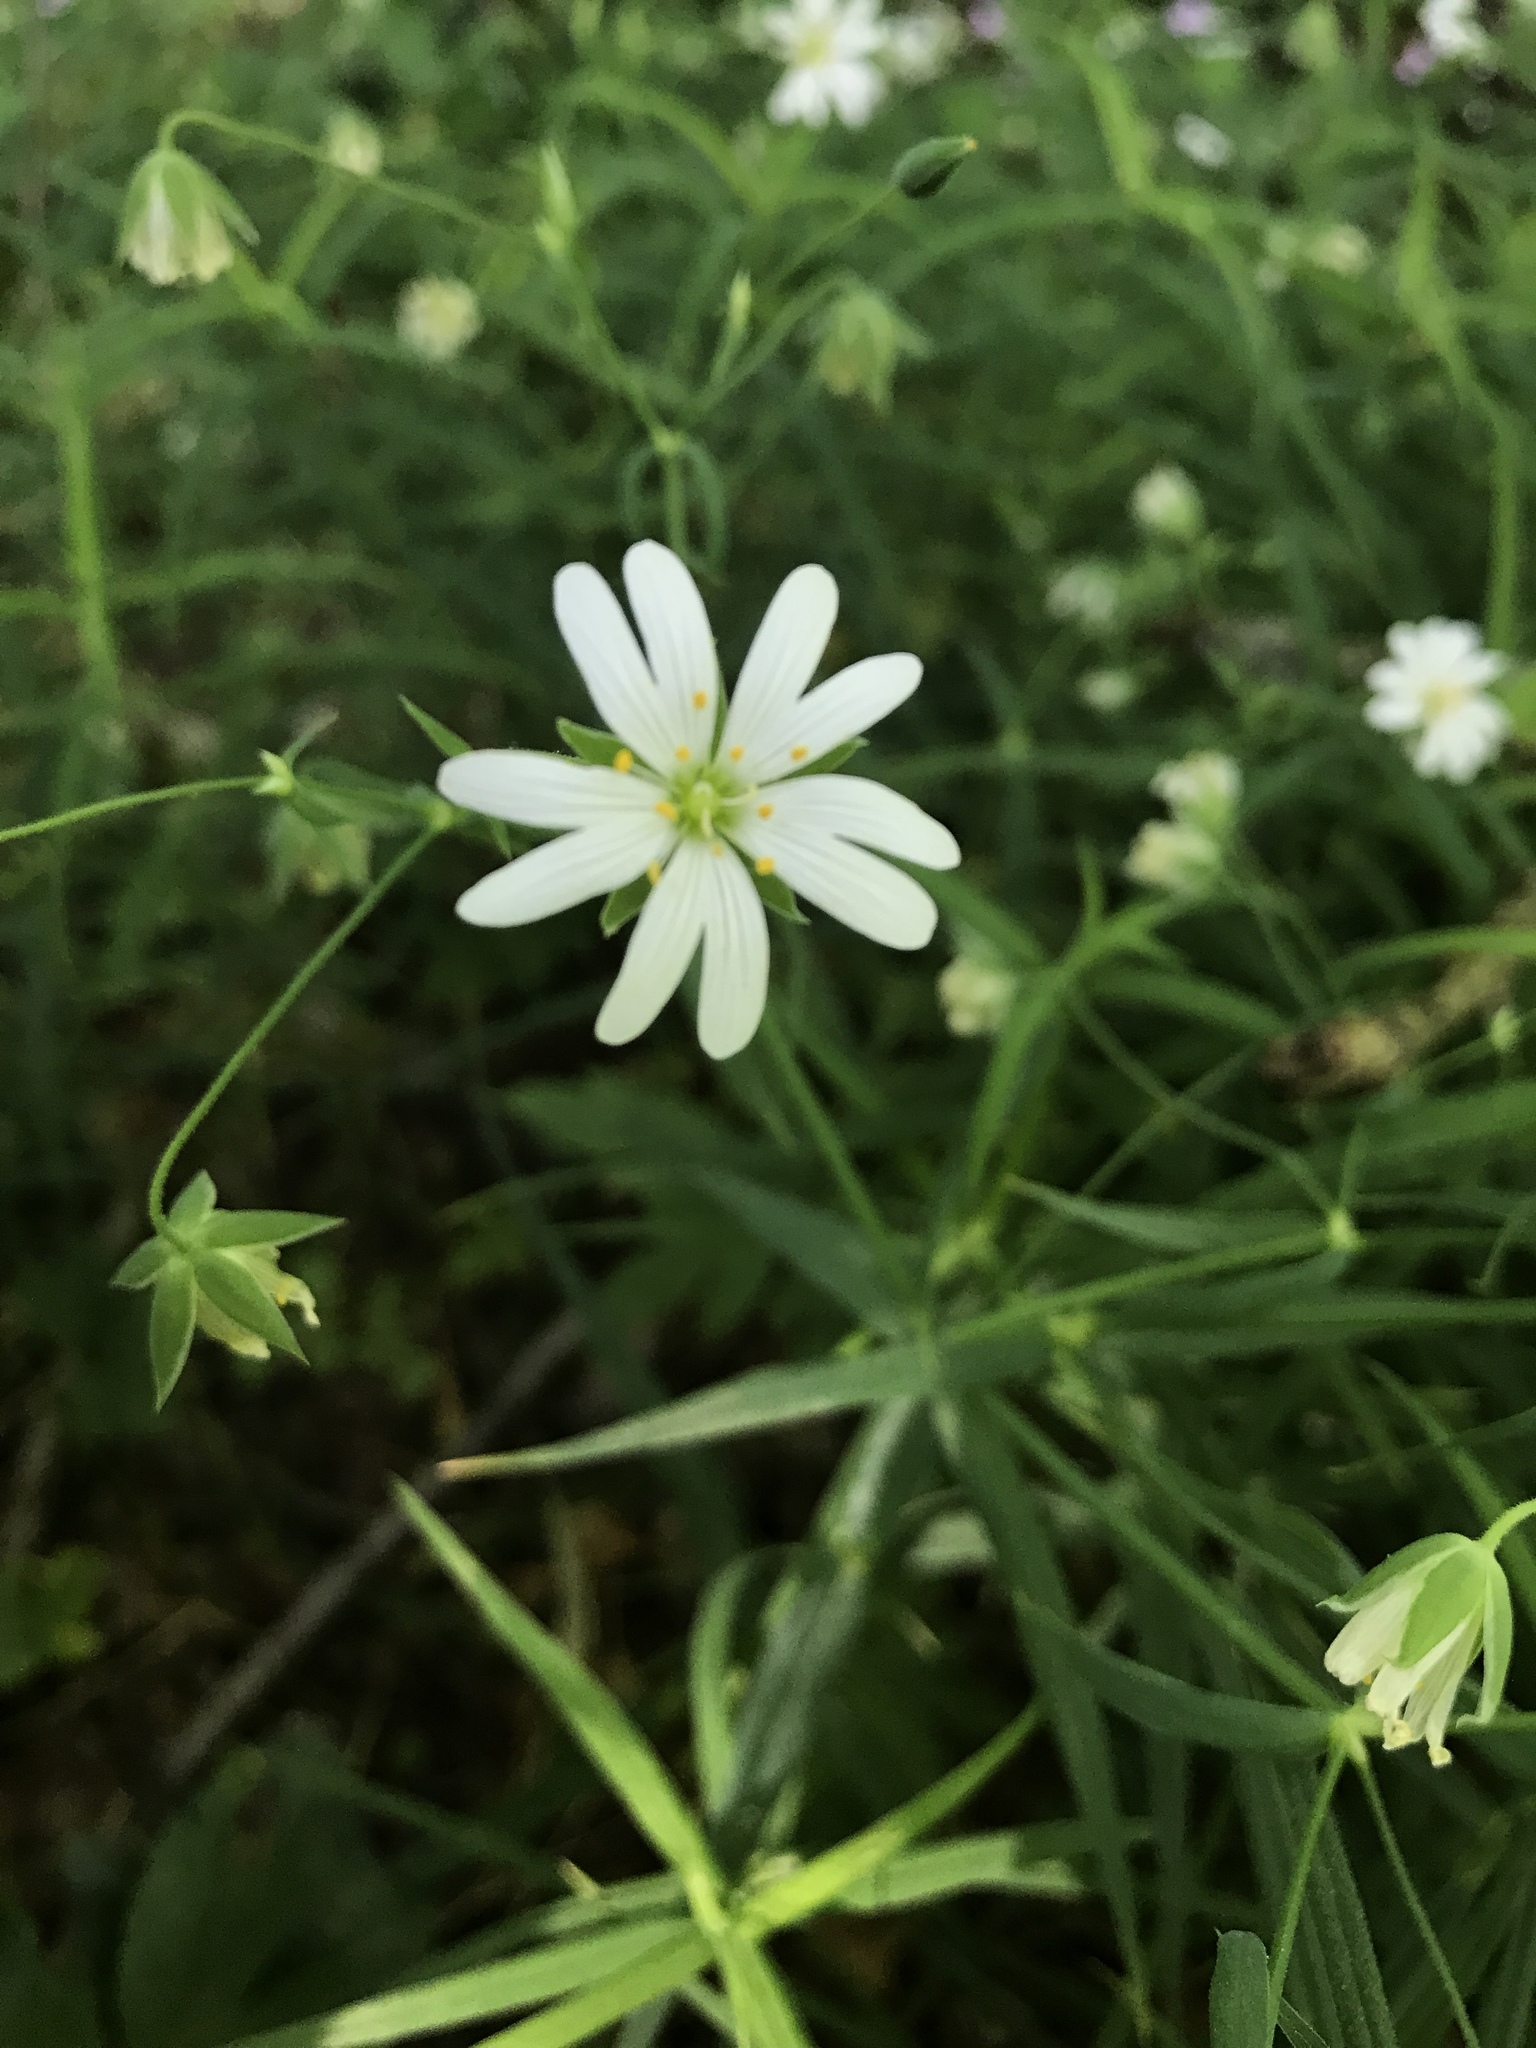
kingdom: Plantae
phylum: Tracheophyta
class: Magnoliopsida
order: Caryophyllales
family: Caryophyllaceae
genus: Rabelera
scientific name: Rabelera holostea
